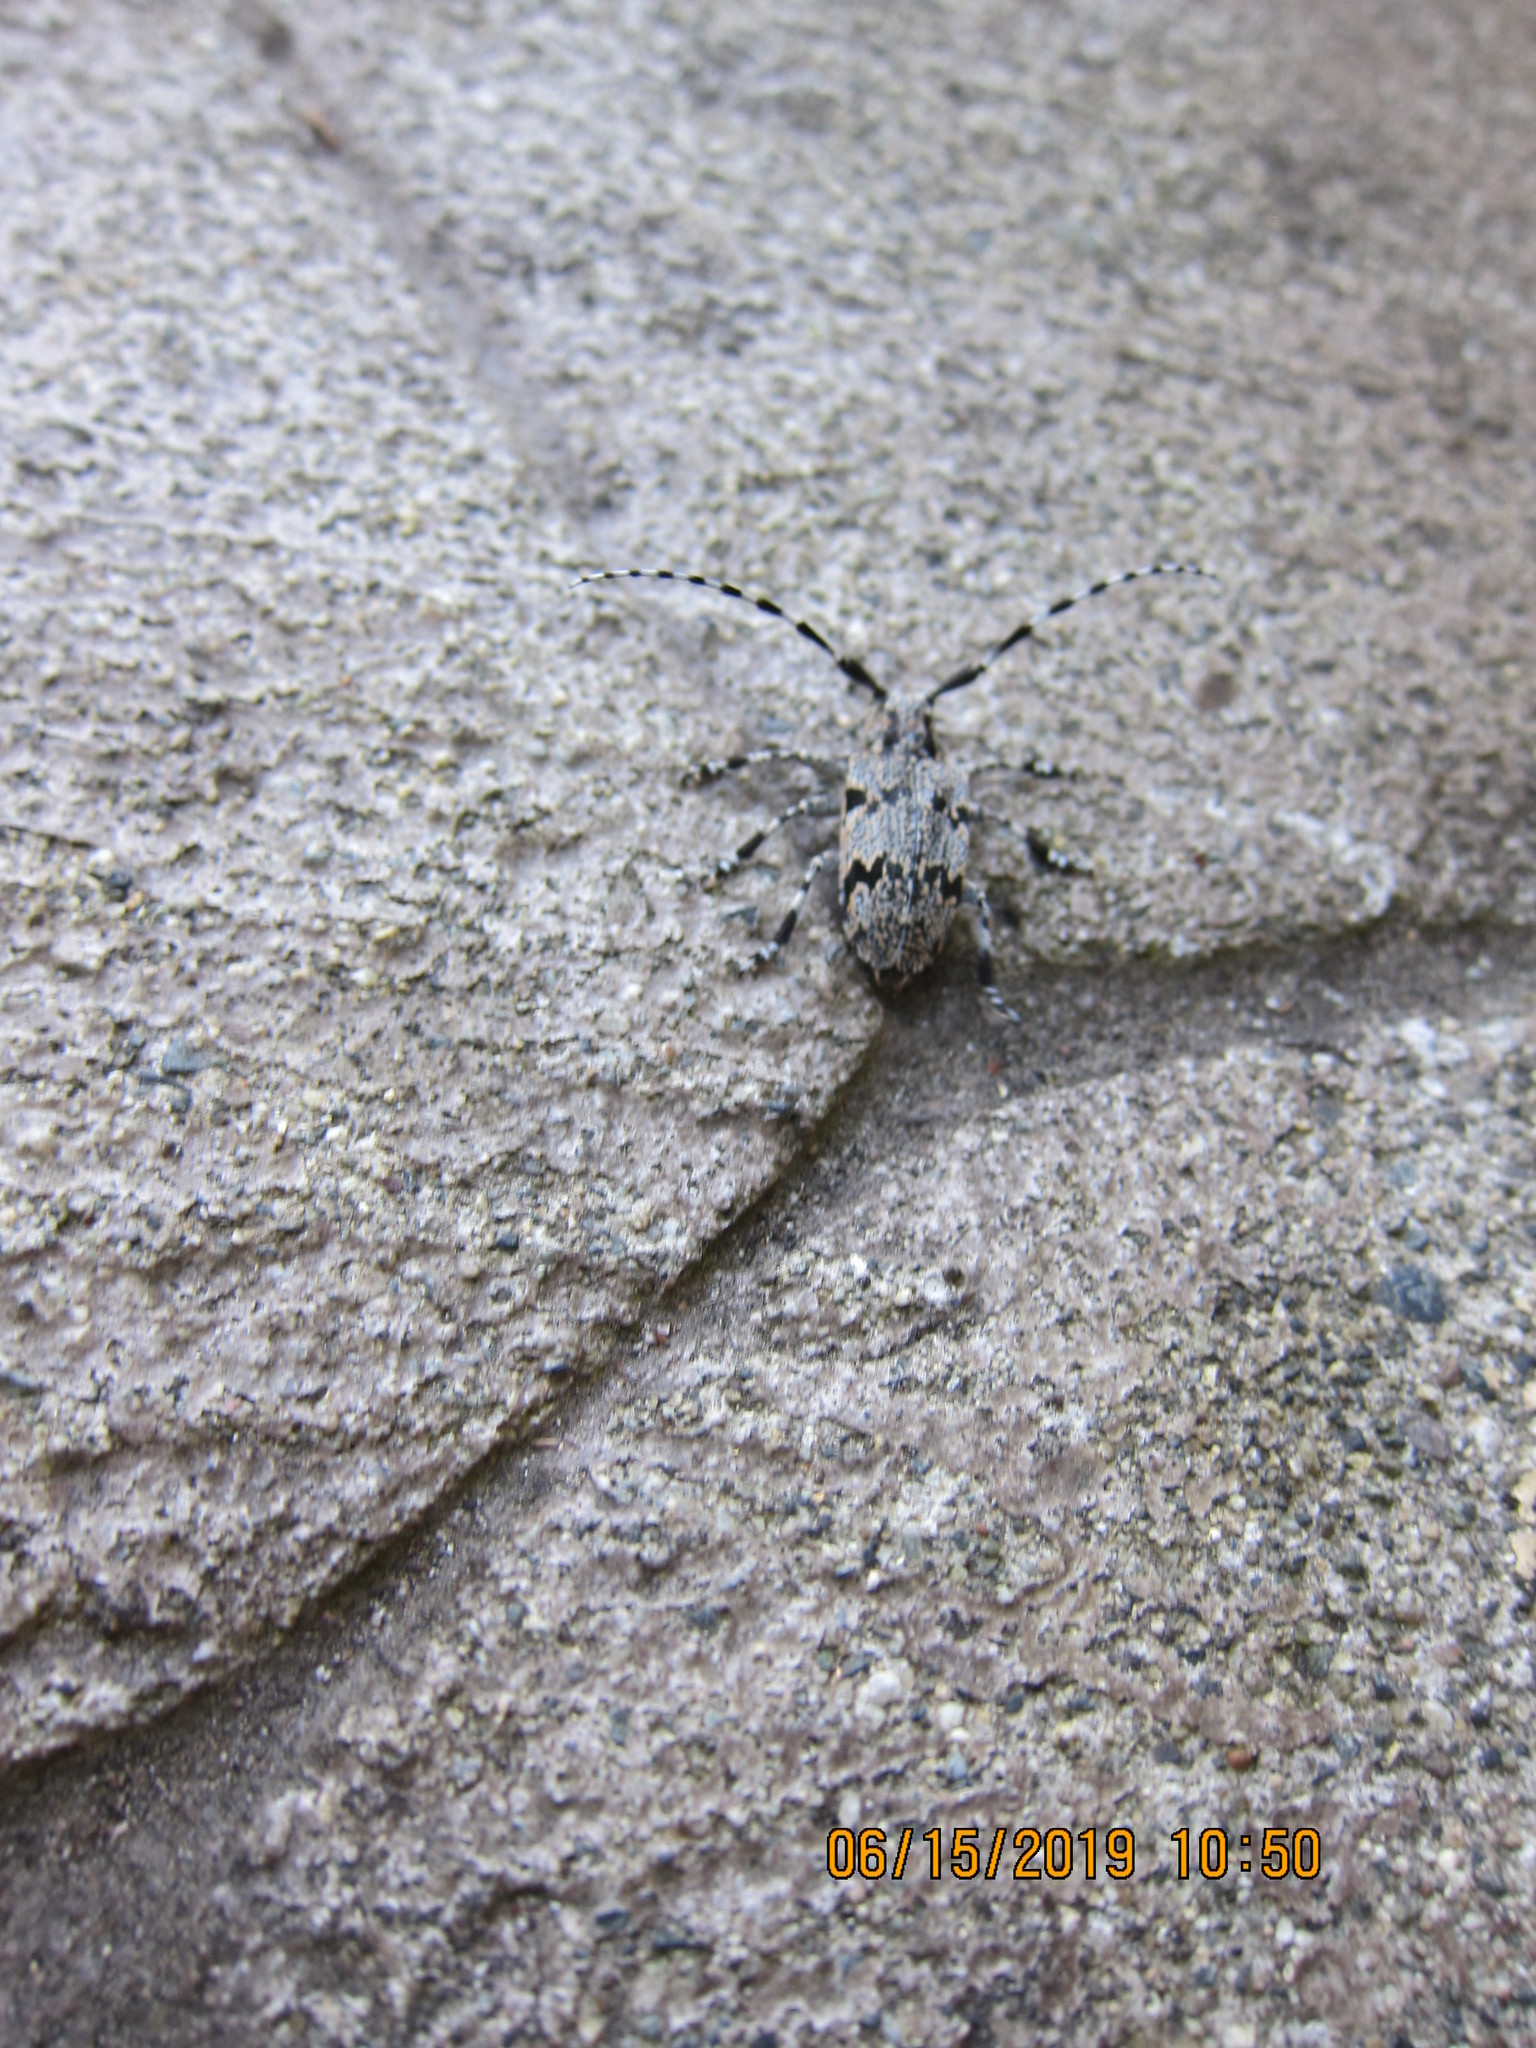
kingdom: Animalia
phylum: Arthropoda
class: Insecta
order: Coleoptera
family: Cerambycidae
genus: Synaphaeta
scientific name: Synaphaeta guexi
